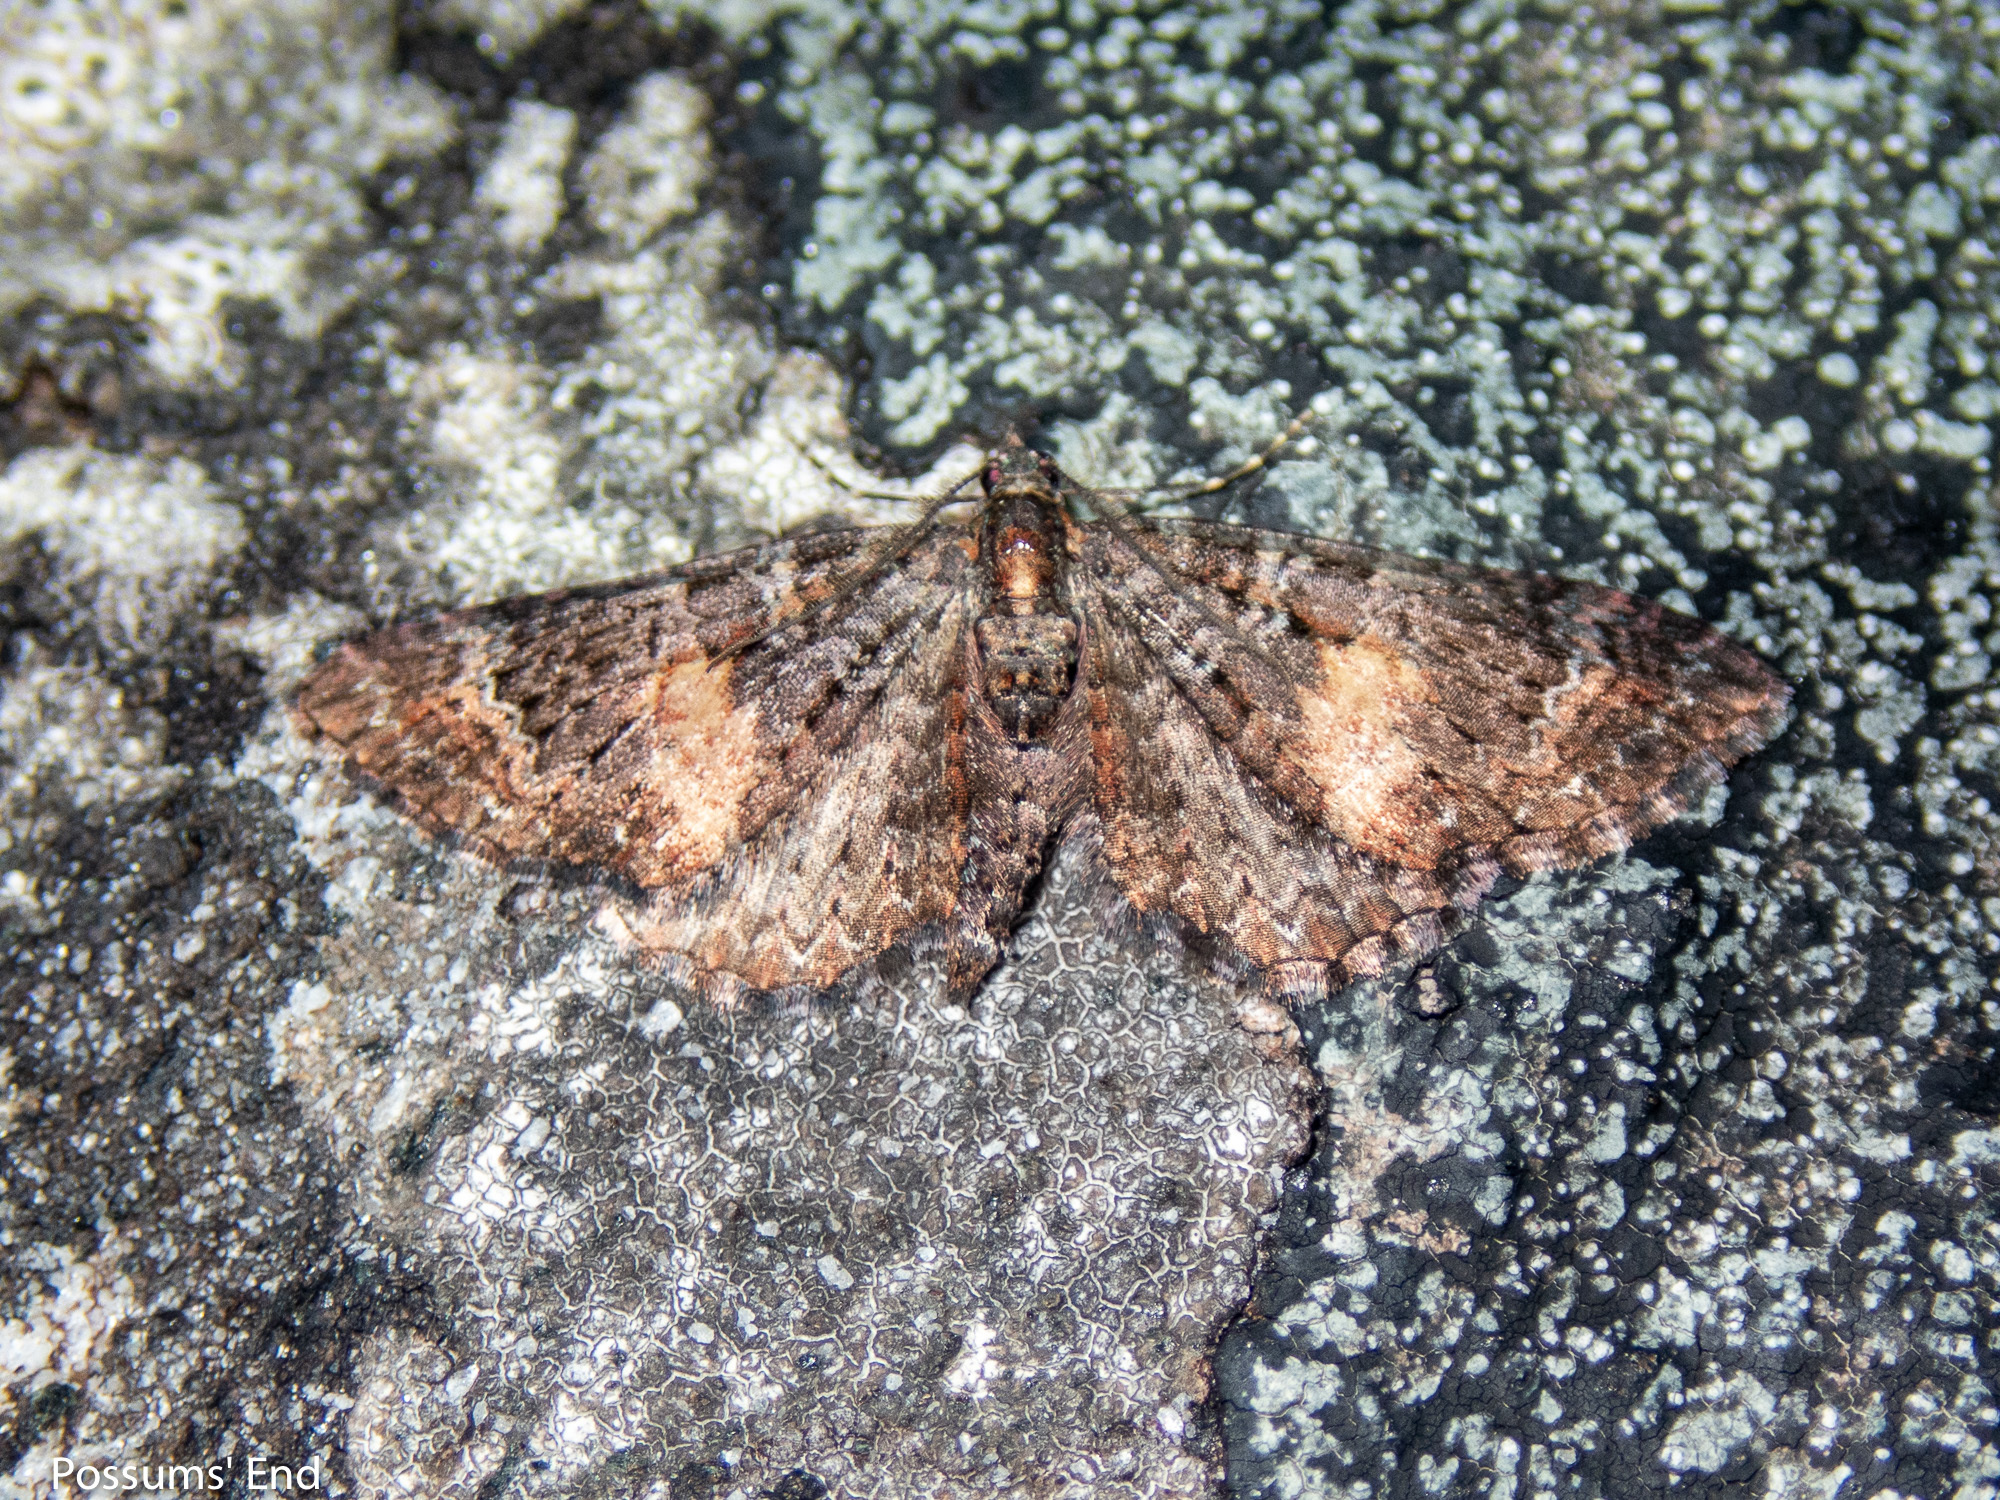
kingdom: Animalia
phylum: Arthropoda
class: Insecta
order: Lepidoptera
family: Geometridae
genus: Pasiphila
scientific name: Pasiphila rubella
